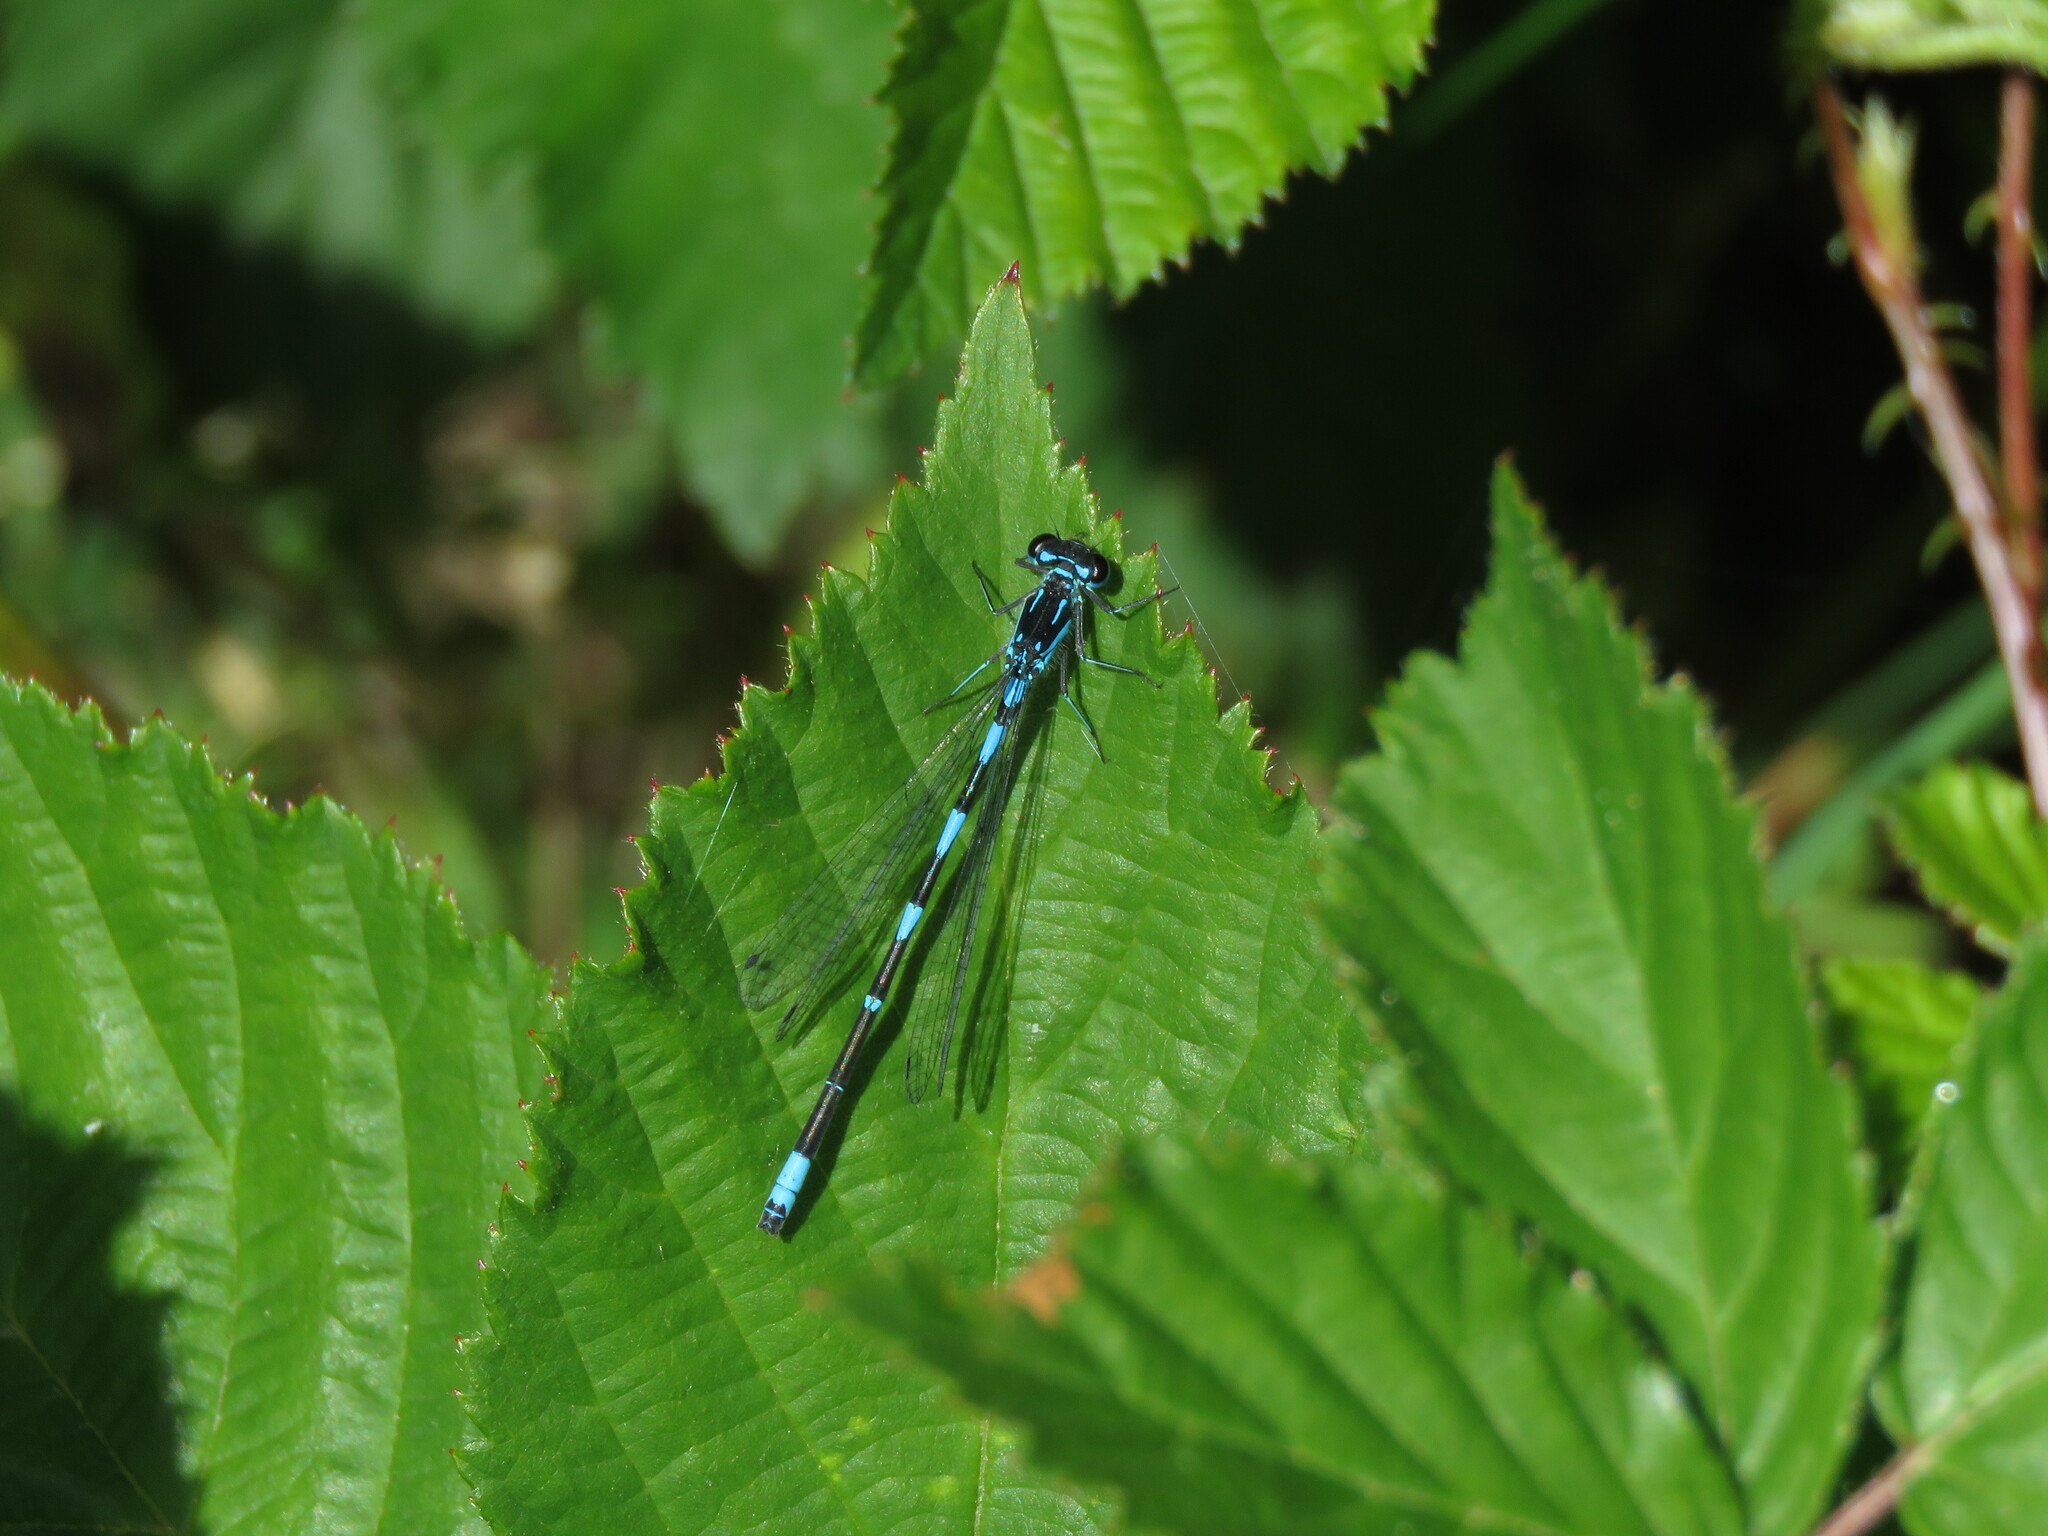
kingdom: Animalia
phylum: Arthropoda
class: Insecta
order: Odonata
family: Coenagrionidae
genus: Coenagrion
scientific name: Coenagrion pulchellum
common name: Variable bluet
